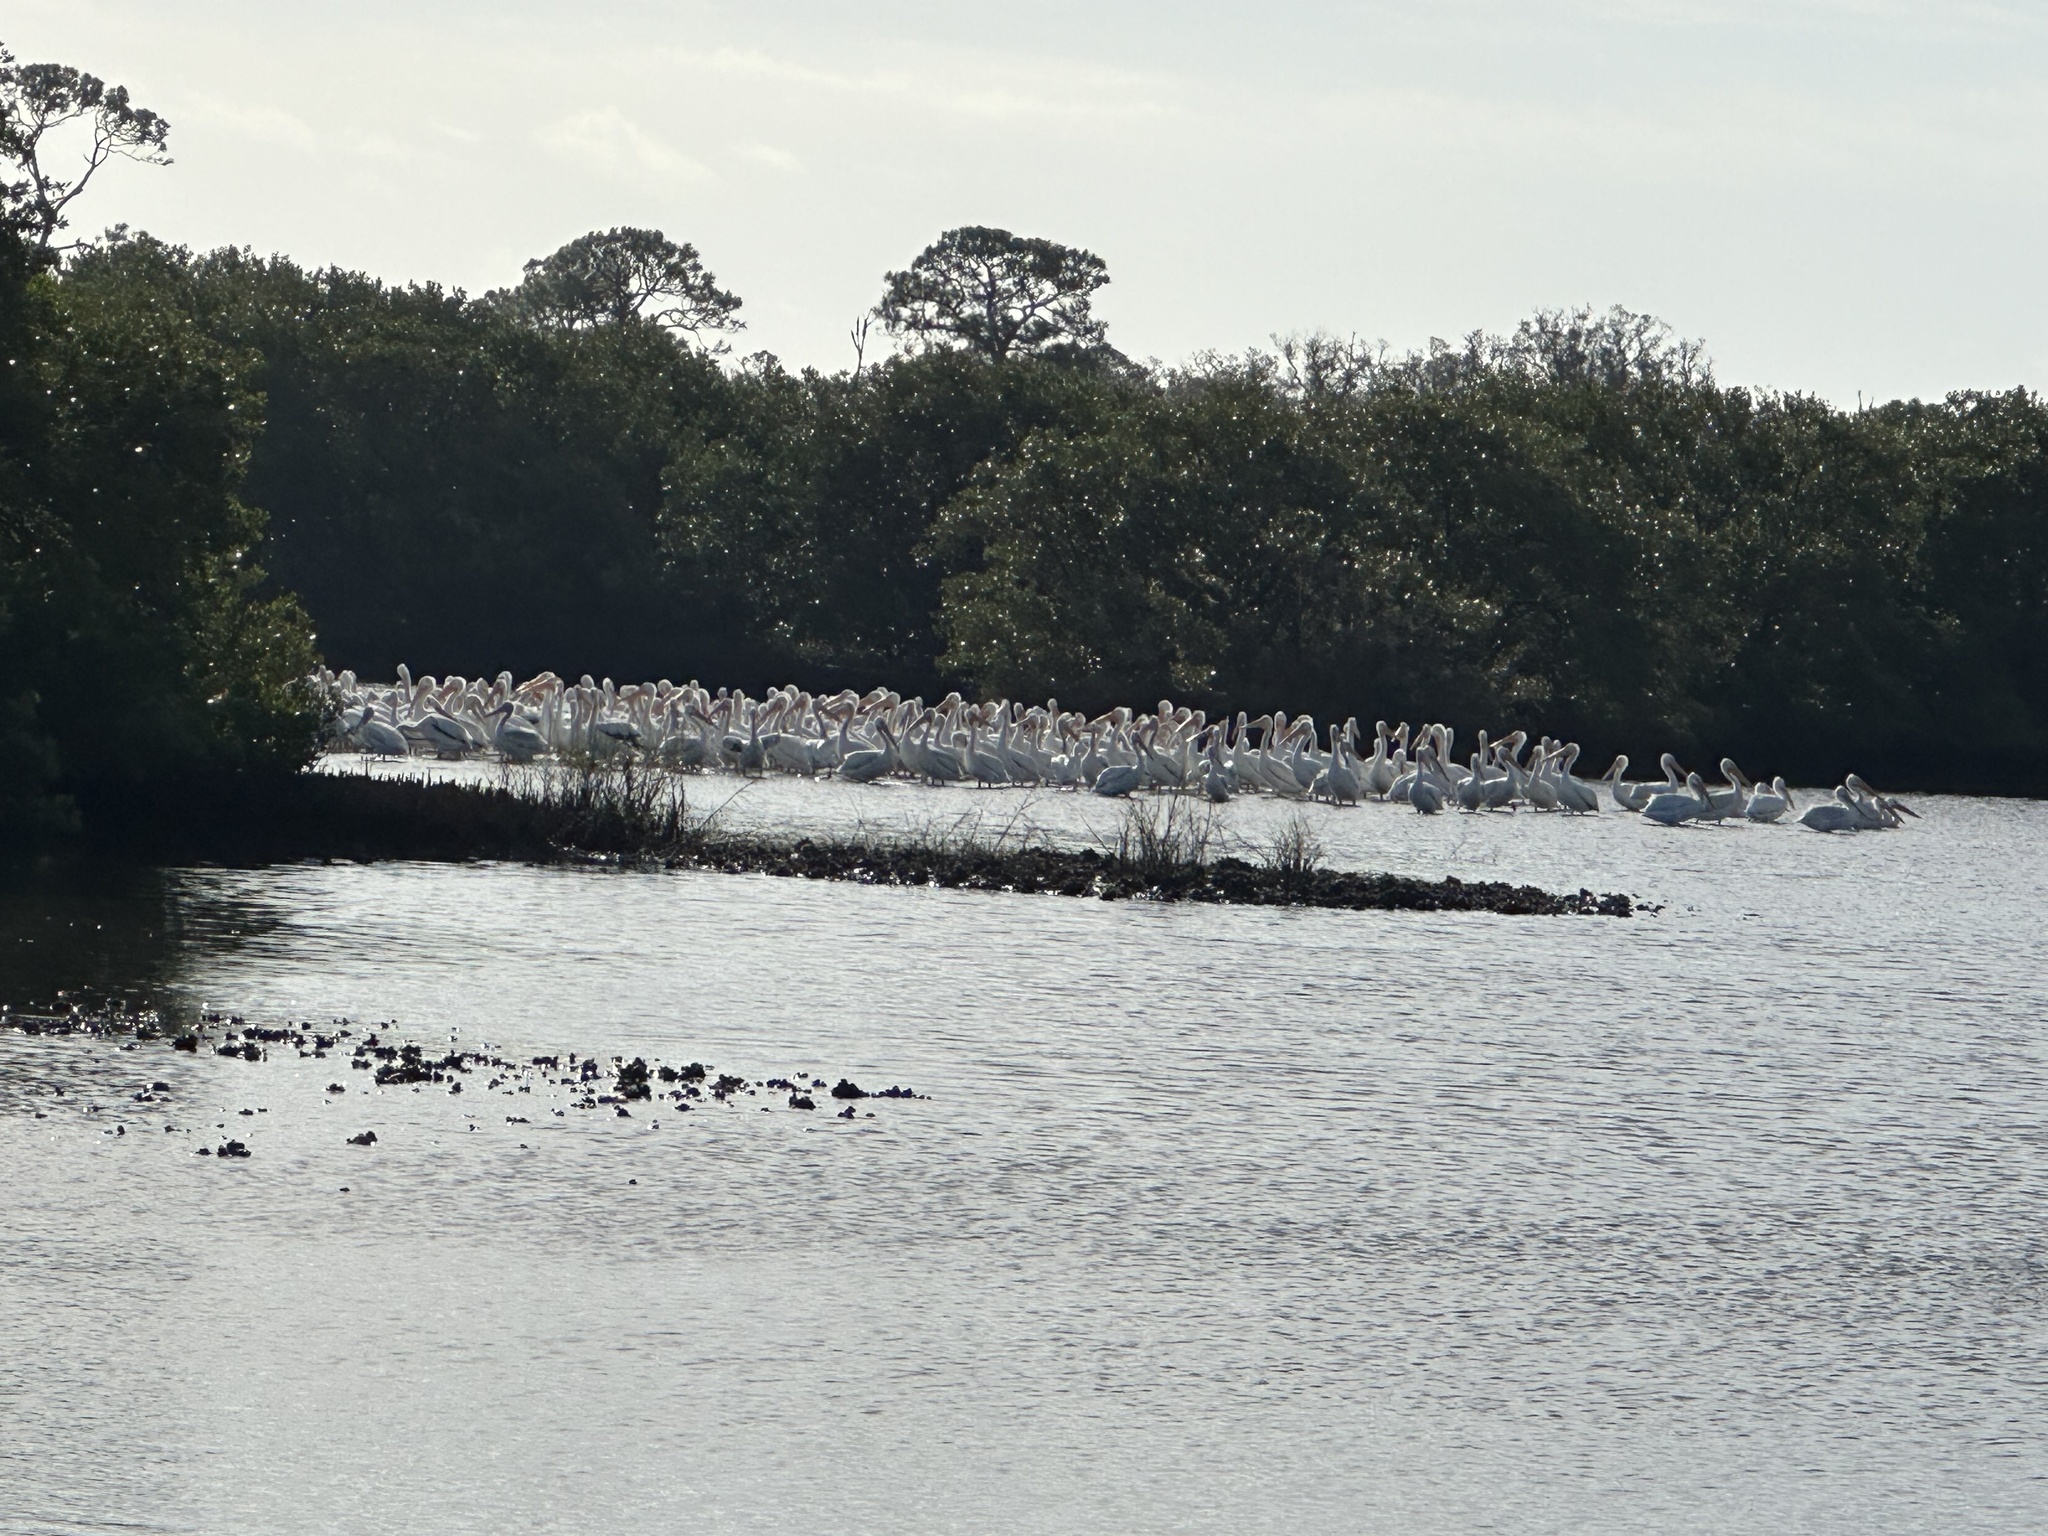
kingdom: Animalia
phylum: Chordata
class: Aves
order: Pelecaniformes
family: Pelecanidae
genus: Pelecanus
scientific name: Pelecanus erythrorhynchos
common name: American white pelican
